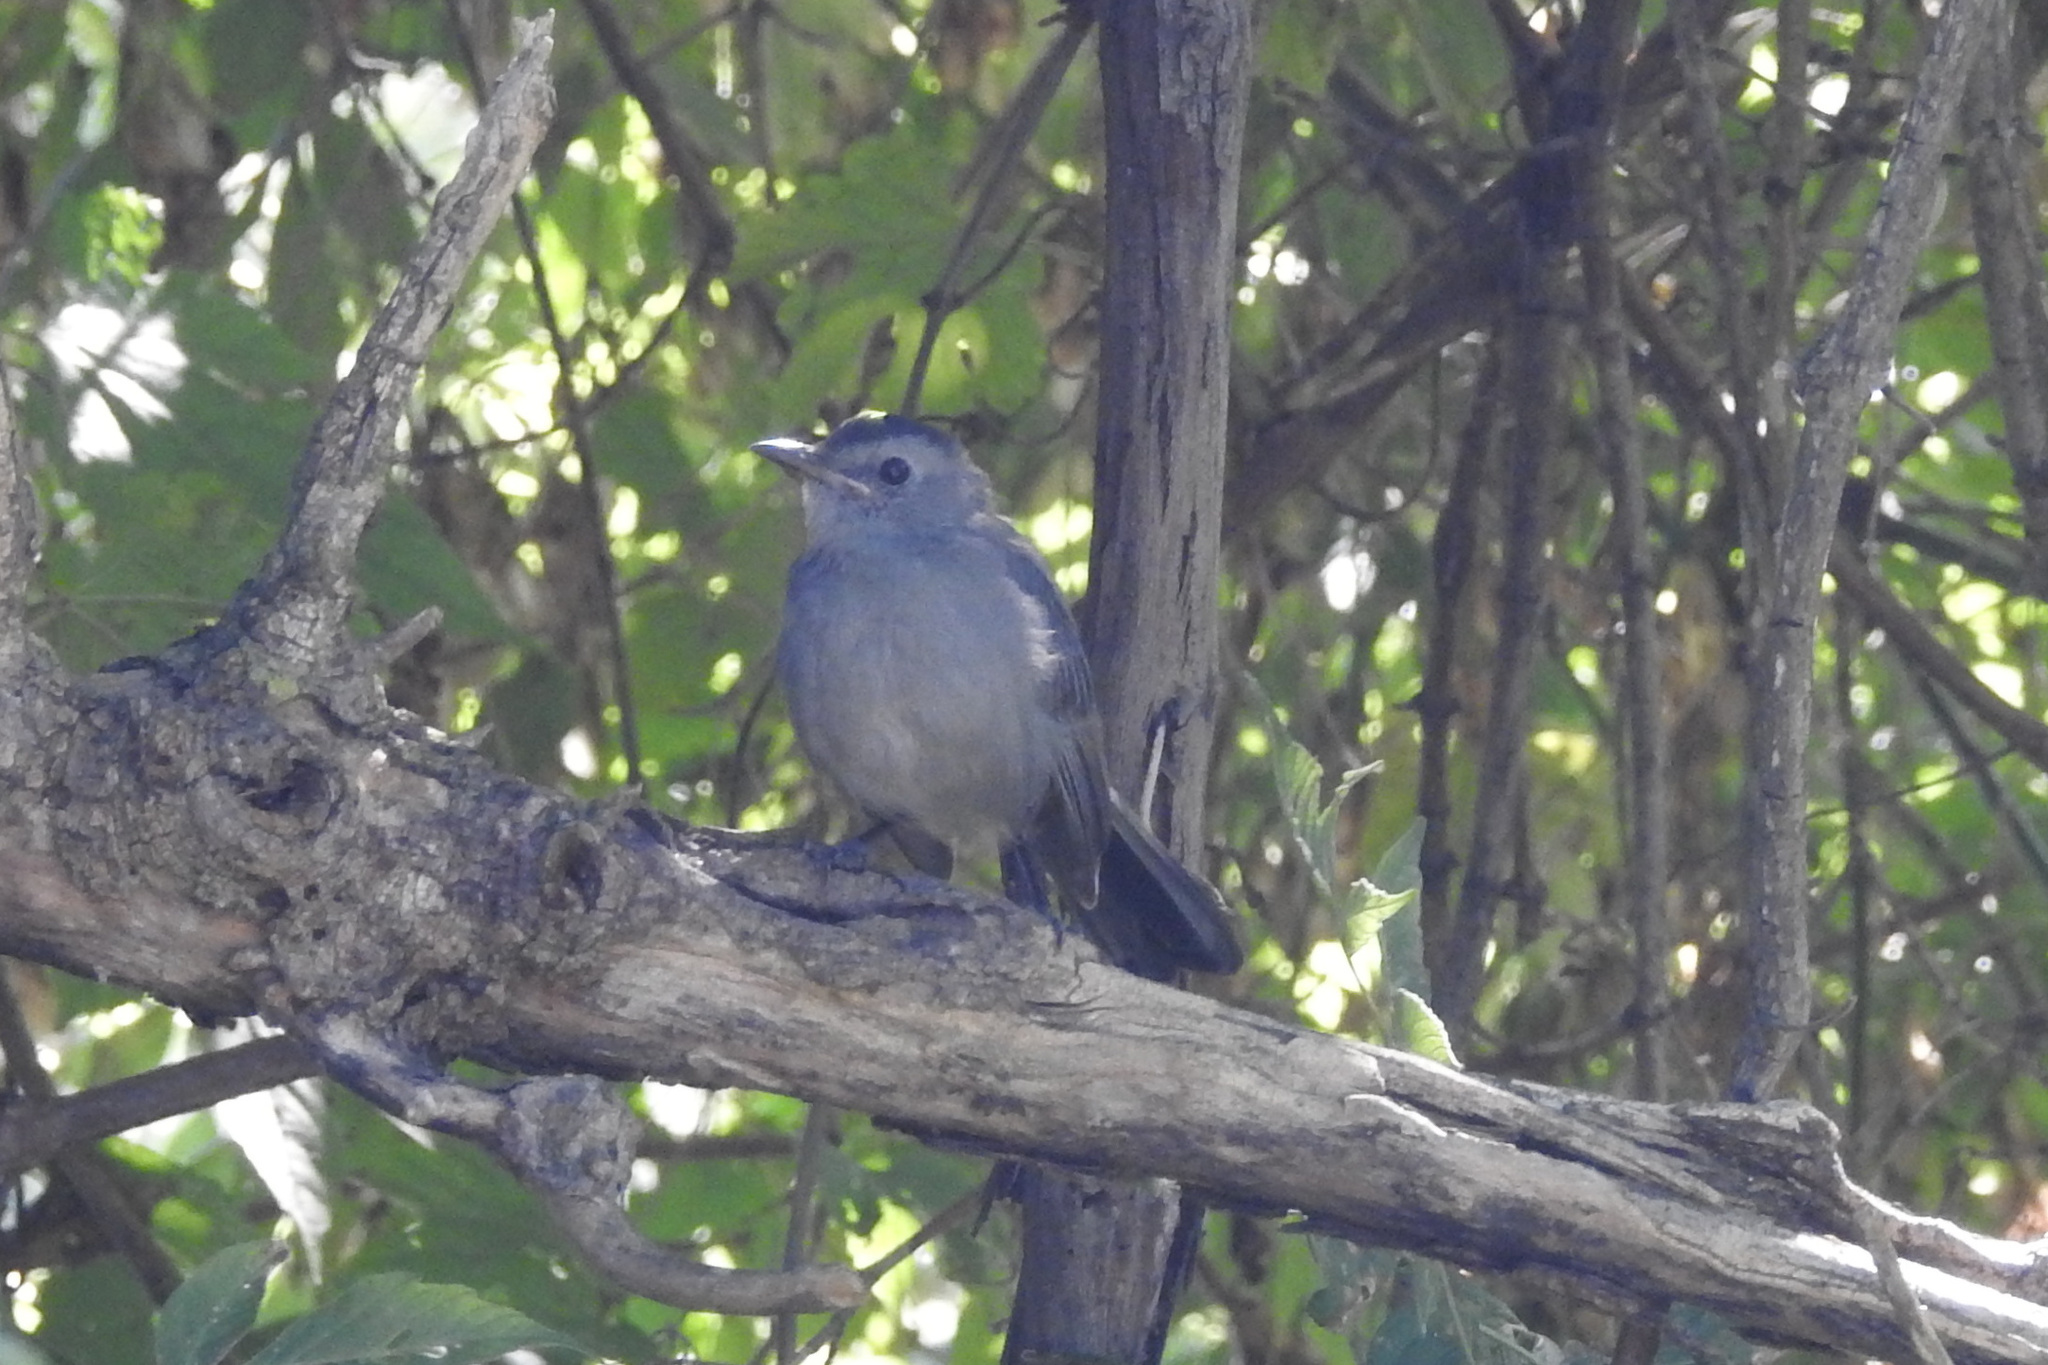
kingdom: Animalia
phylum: Chordata
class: Aves
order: Passeriformes
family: Mimidae
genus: Dumetella
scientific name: Dumetella carolinensis
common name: Gray catbird
